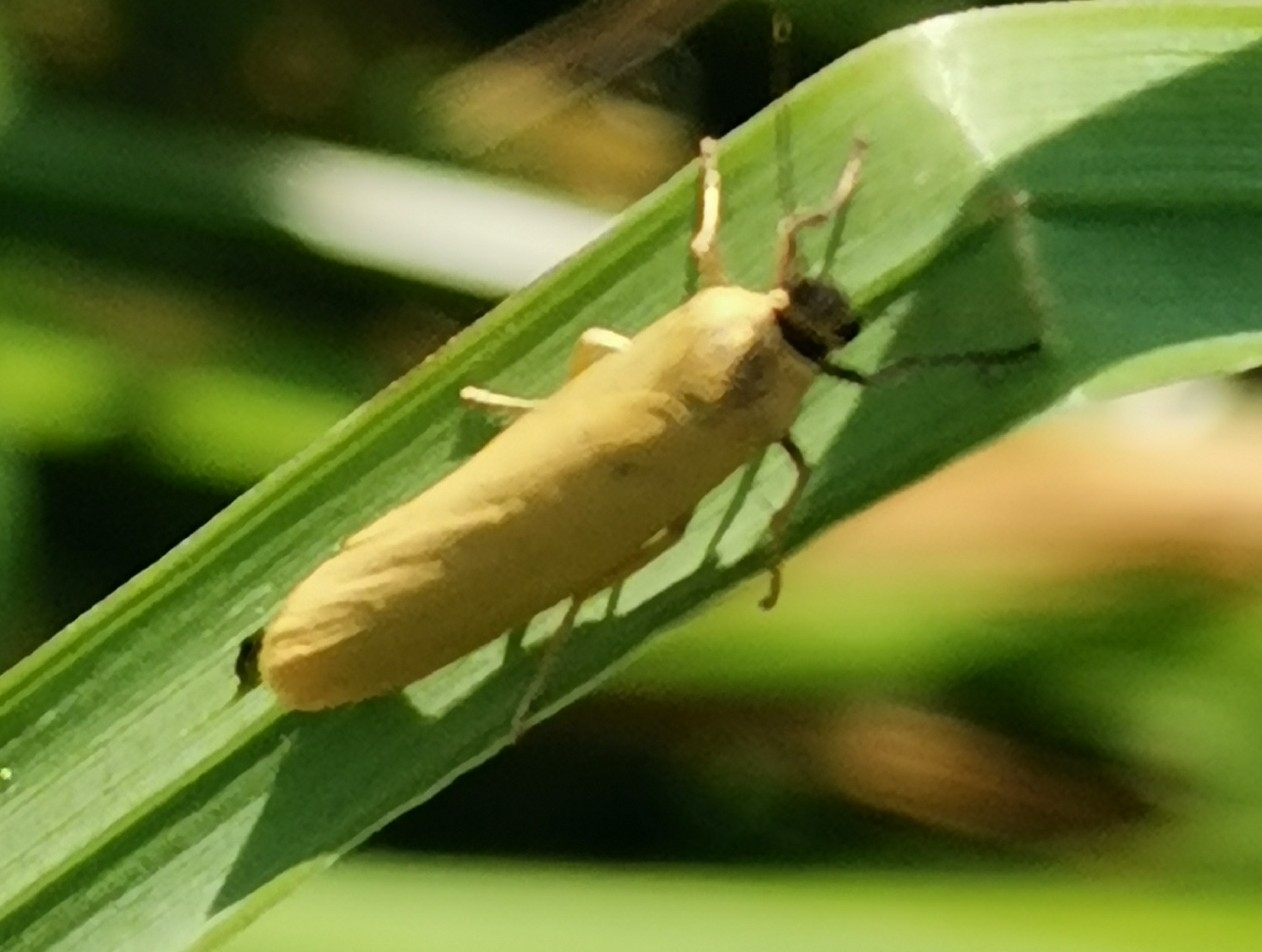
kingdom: Animalia
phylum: Arthropoda
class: Insecta
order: Lepidoptera
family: Erebidae
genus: Indalia
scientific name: Indalia lutarella
